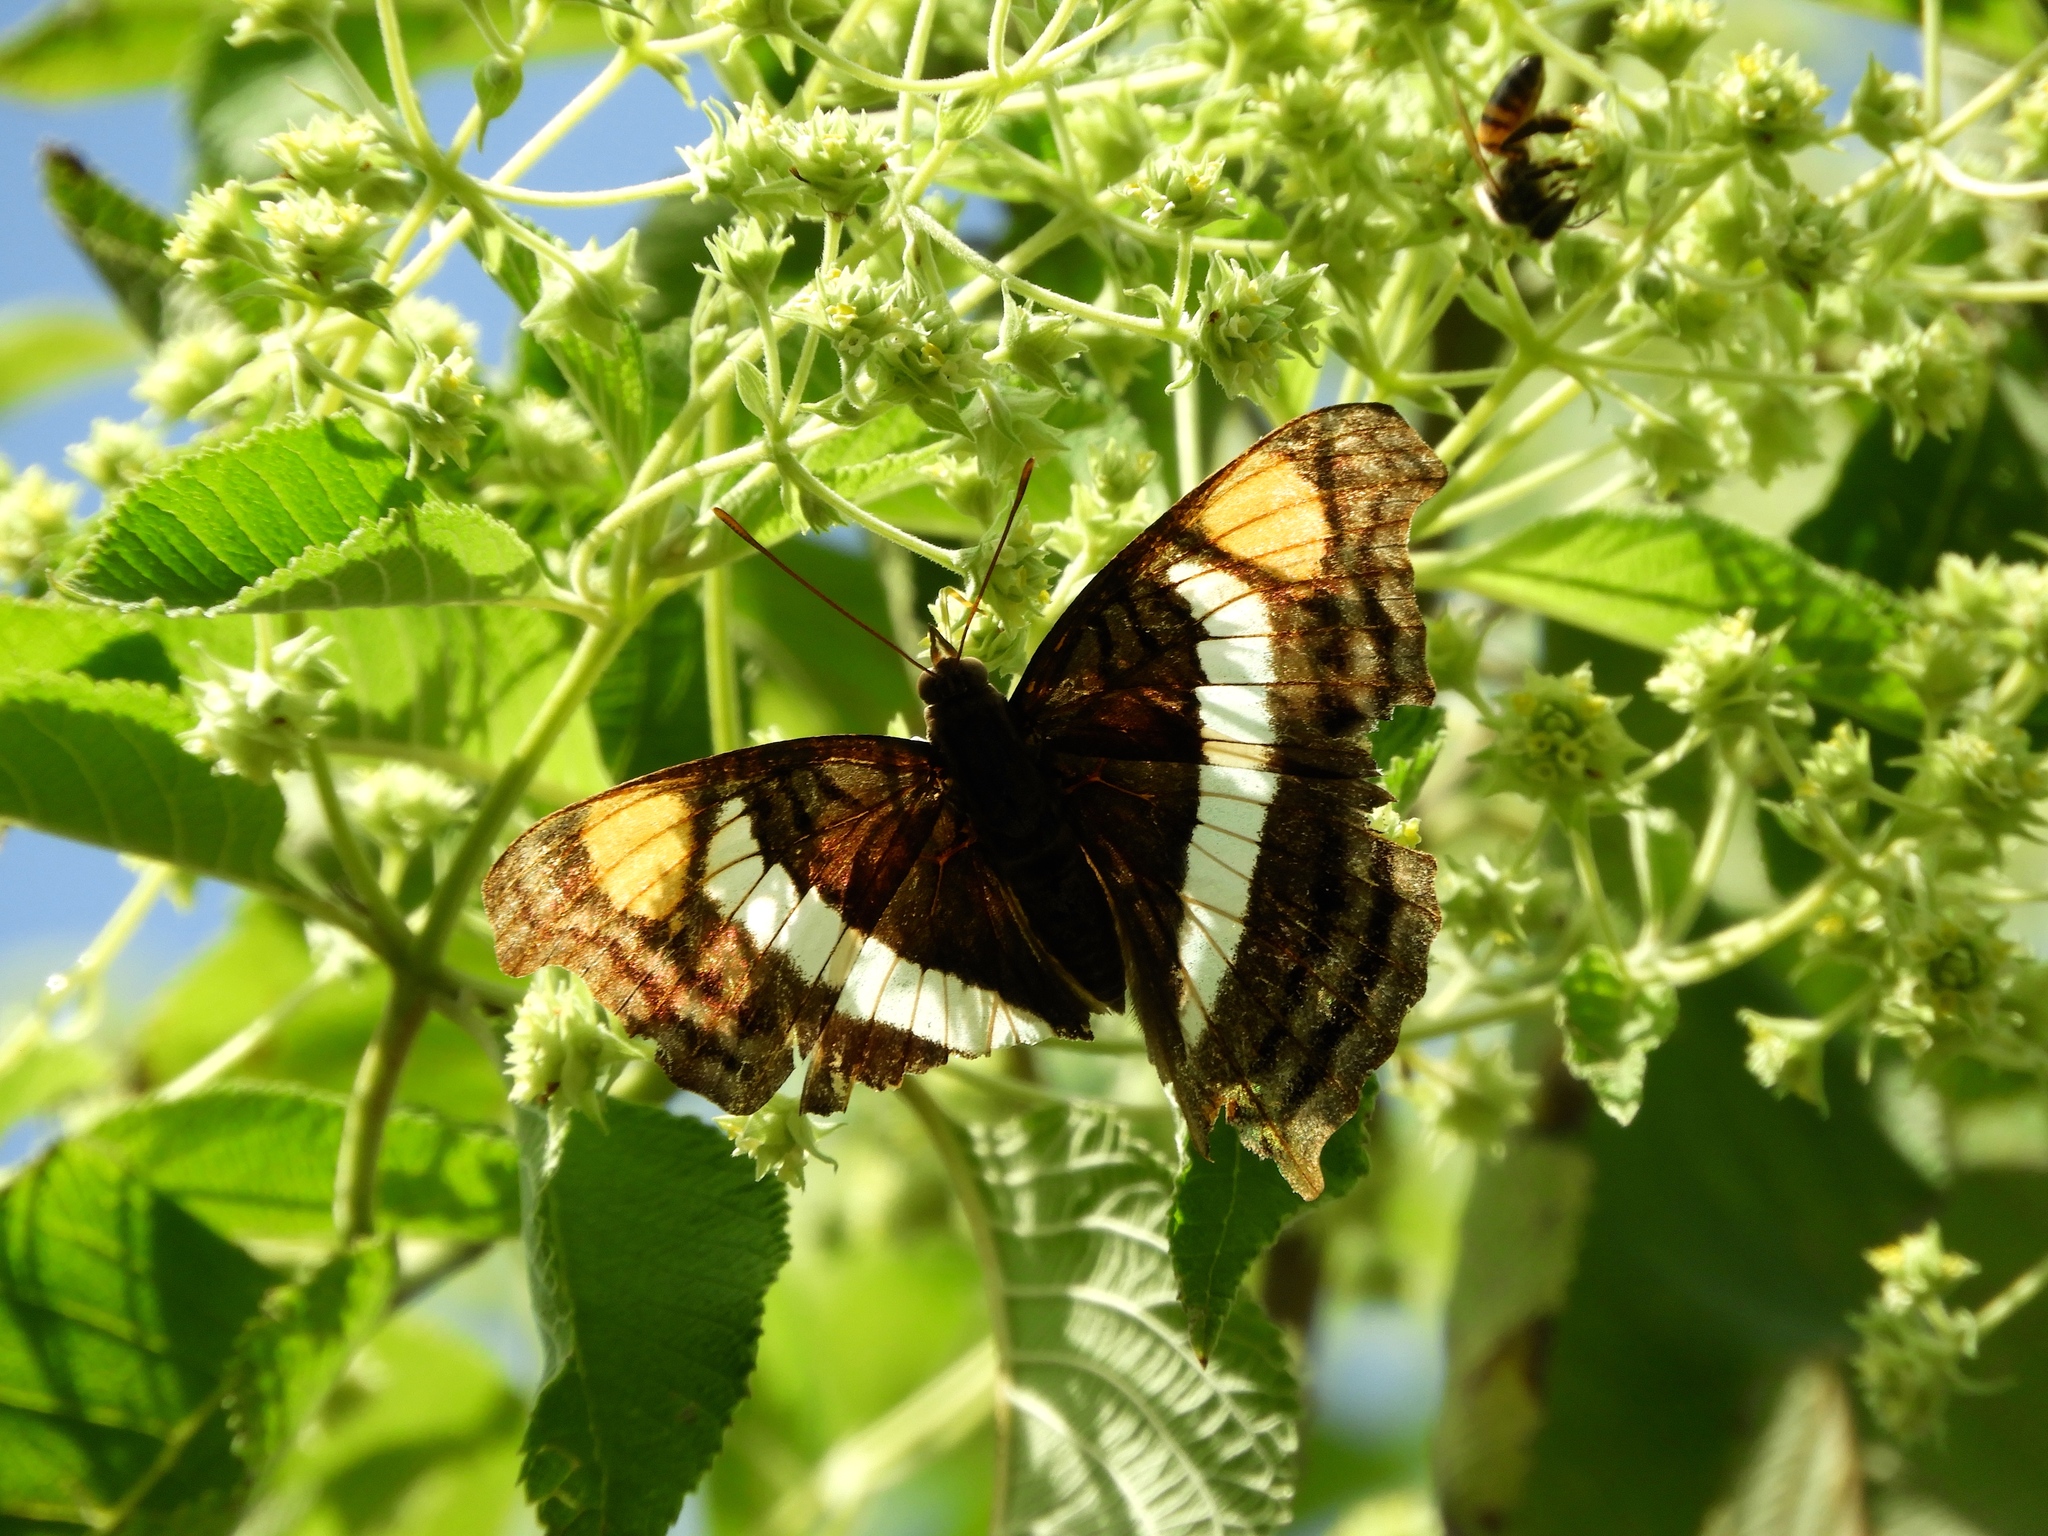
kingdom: Animalia
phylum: Arthropoda
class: Insecta
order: Lepidoptera
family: Nymphalidae
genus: Doxocopa
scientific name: Doxocopa laure
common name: Silver emperor
